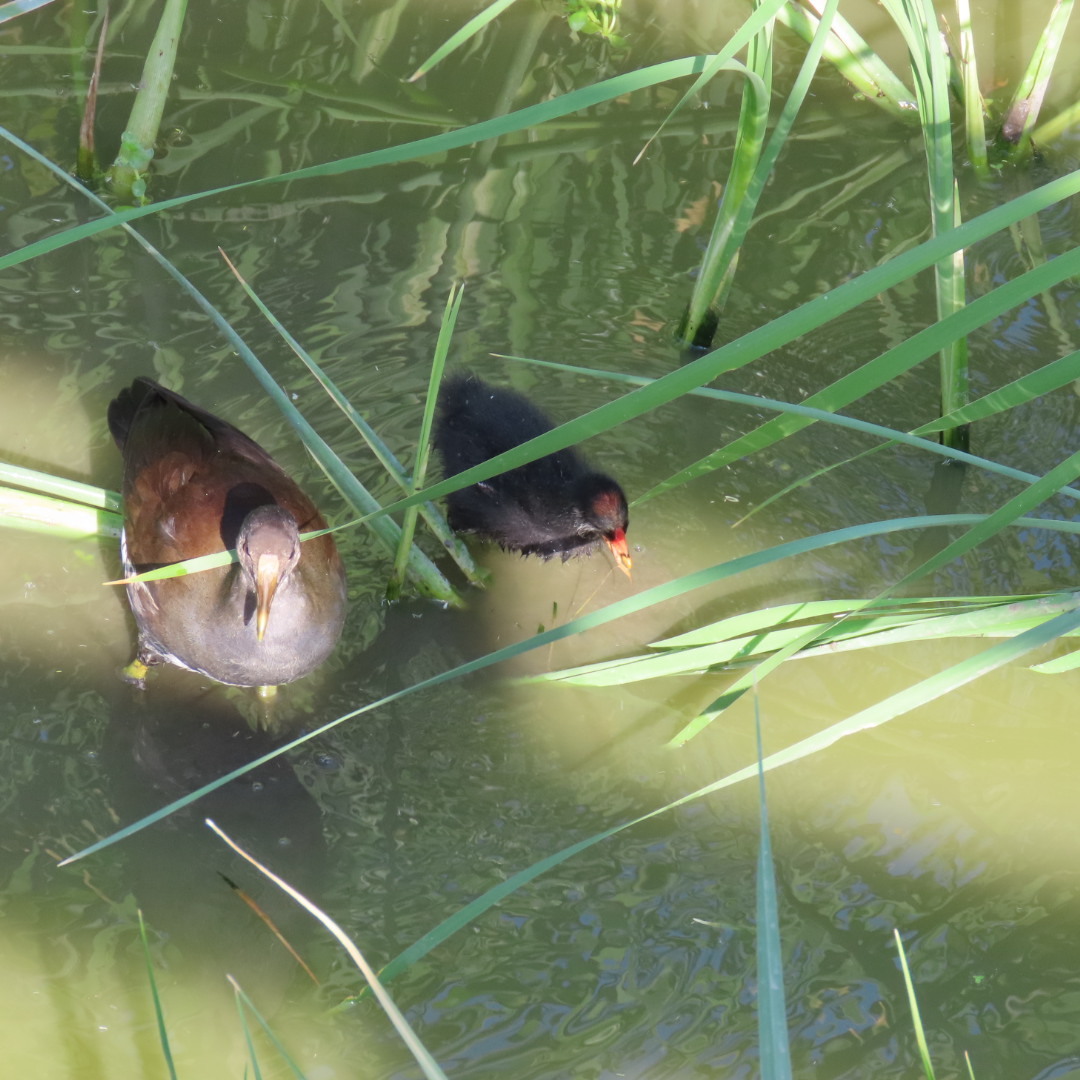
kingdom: Animalia
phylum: Chordata
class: Aves
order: Gruiformes
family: Rallidae
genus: Gallinula
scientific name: Gallinula chloropus
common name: Common moorhen
